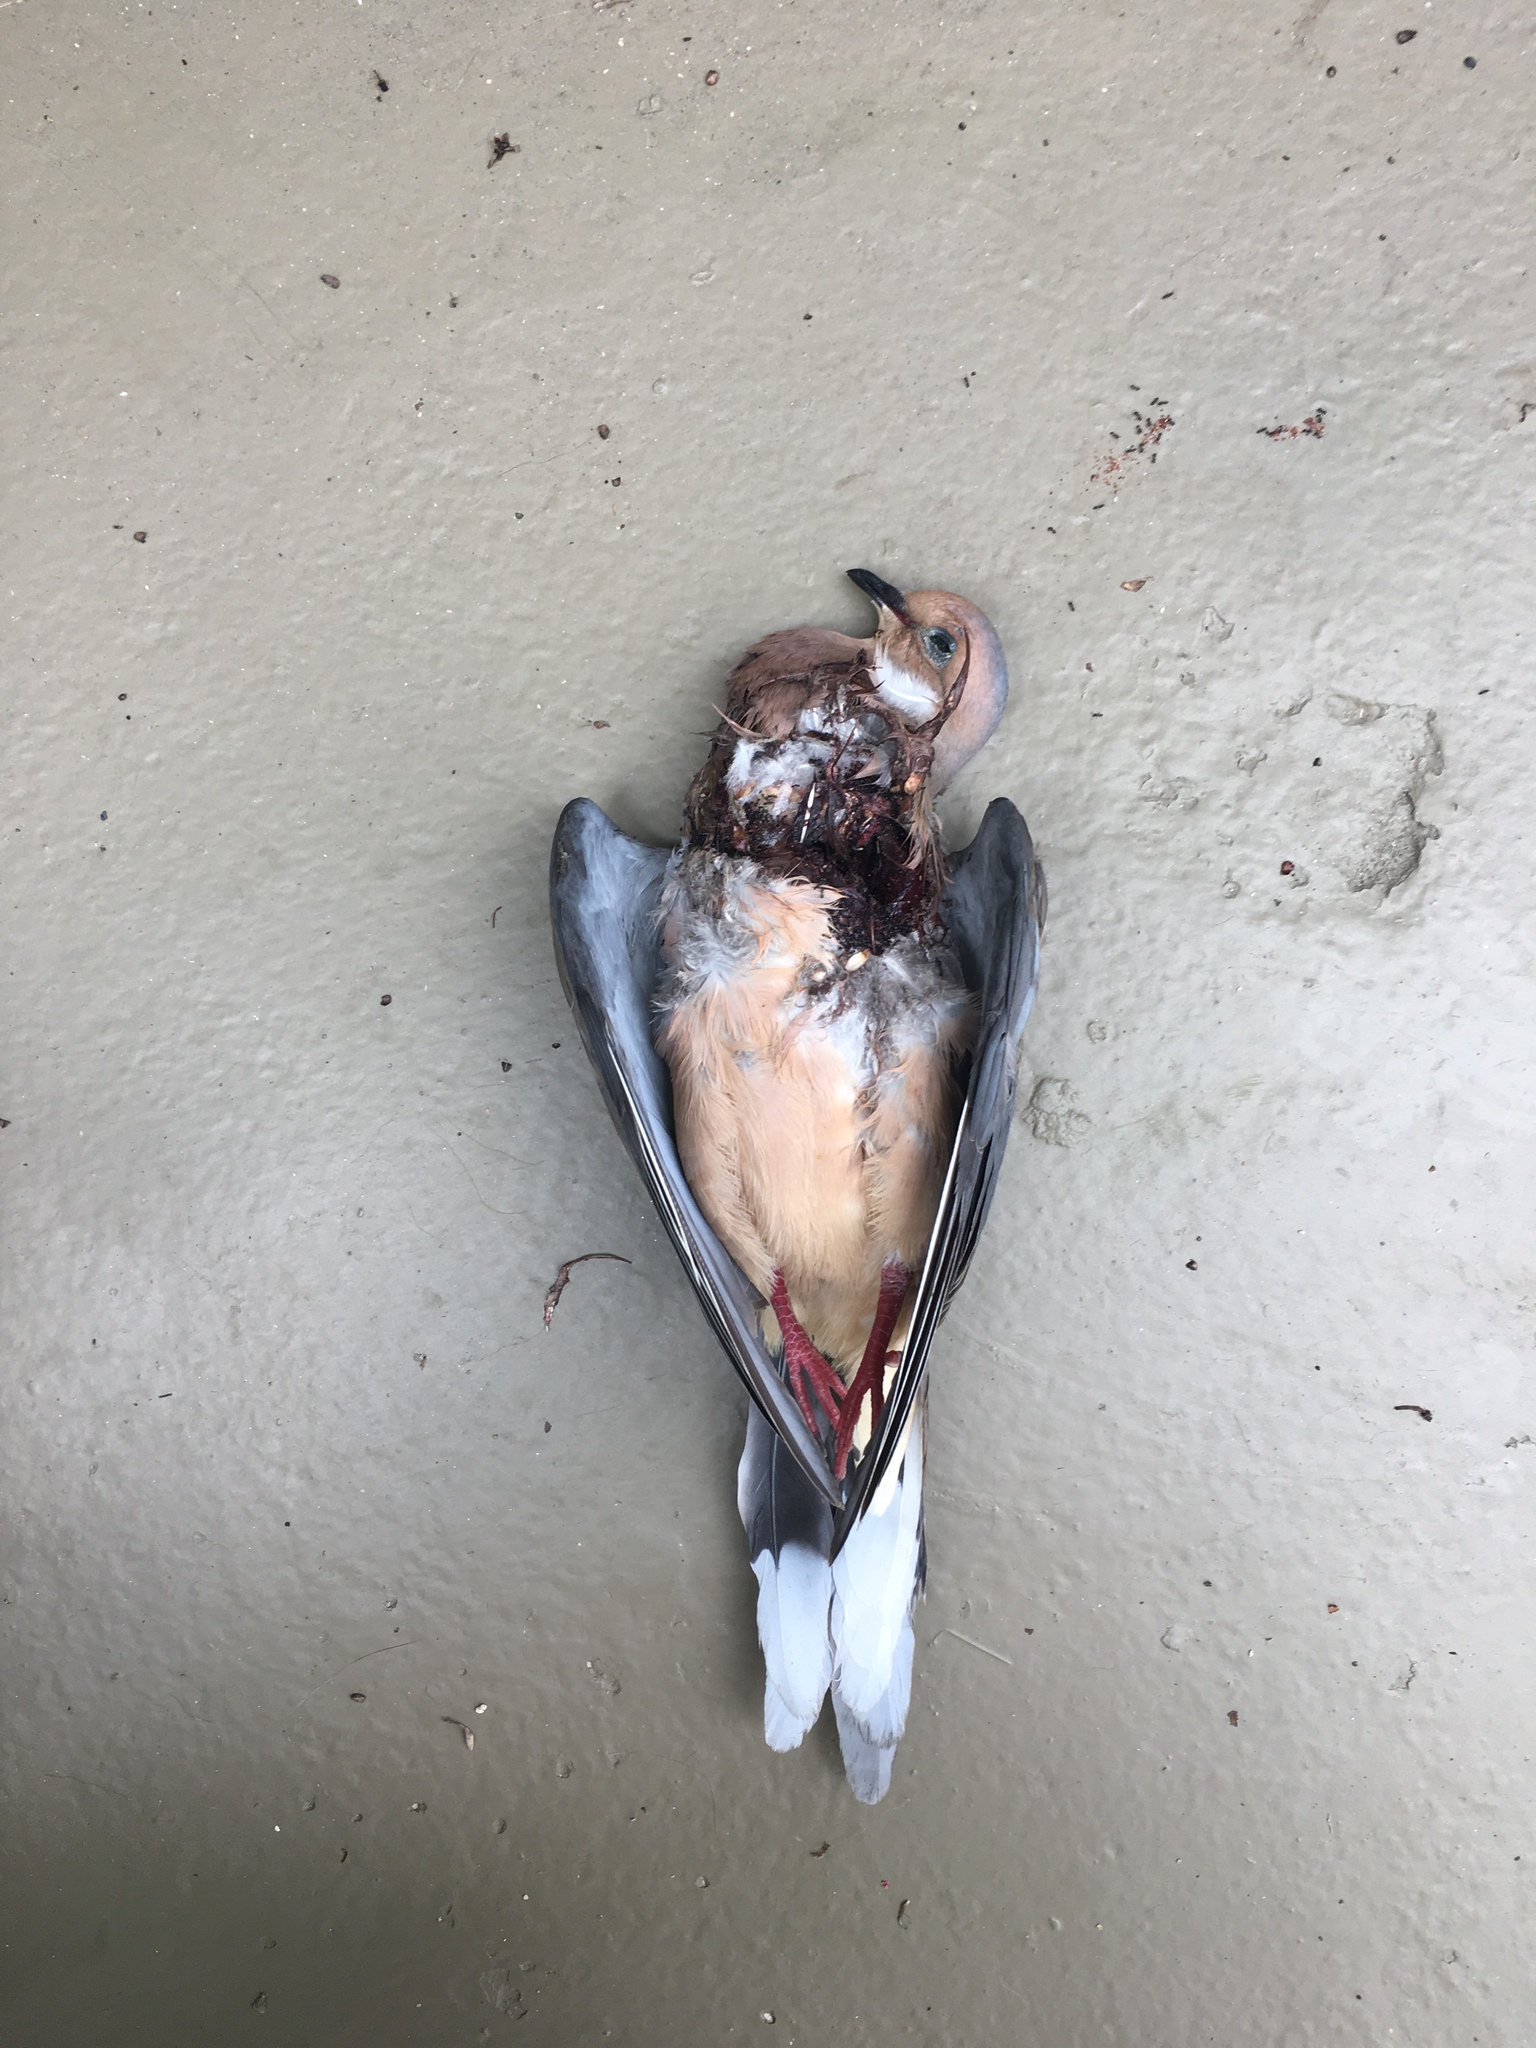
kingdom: Animalia
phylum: Chordata
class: Aves
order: Columbiformes
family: Columbidae
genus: Zenaida
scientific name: Zenaida macroura
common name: Mourning dove
